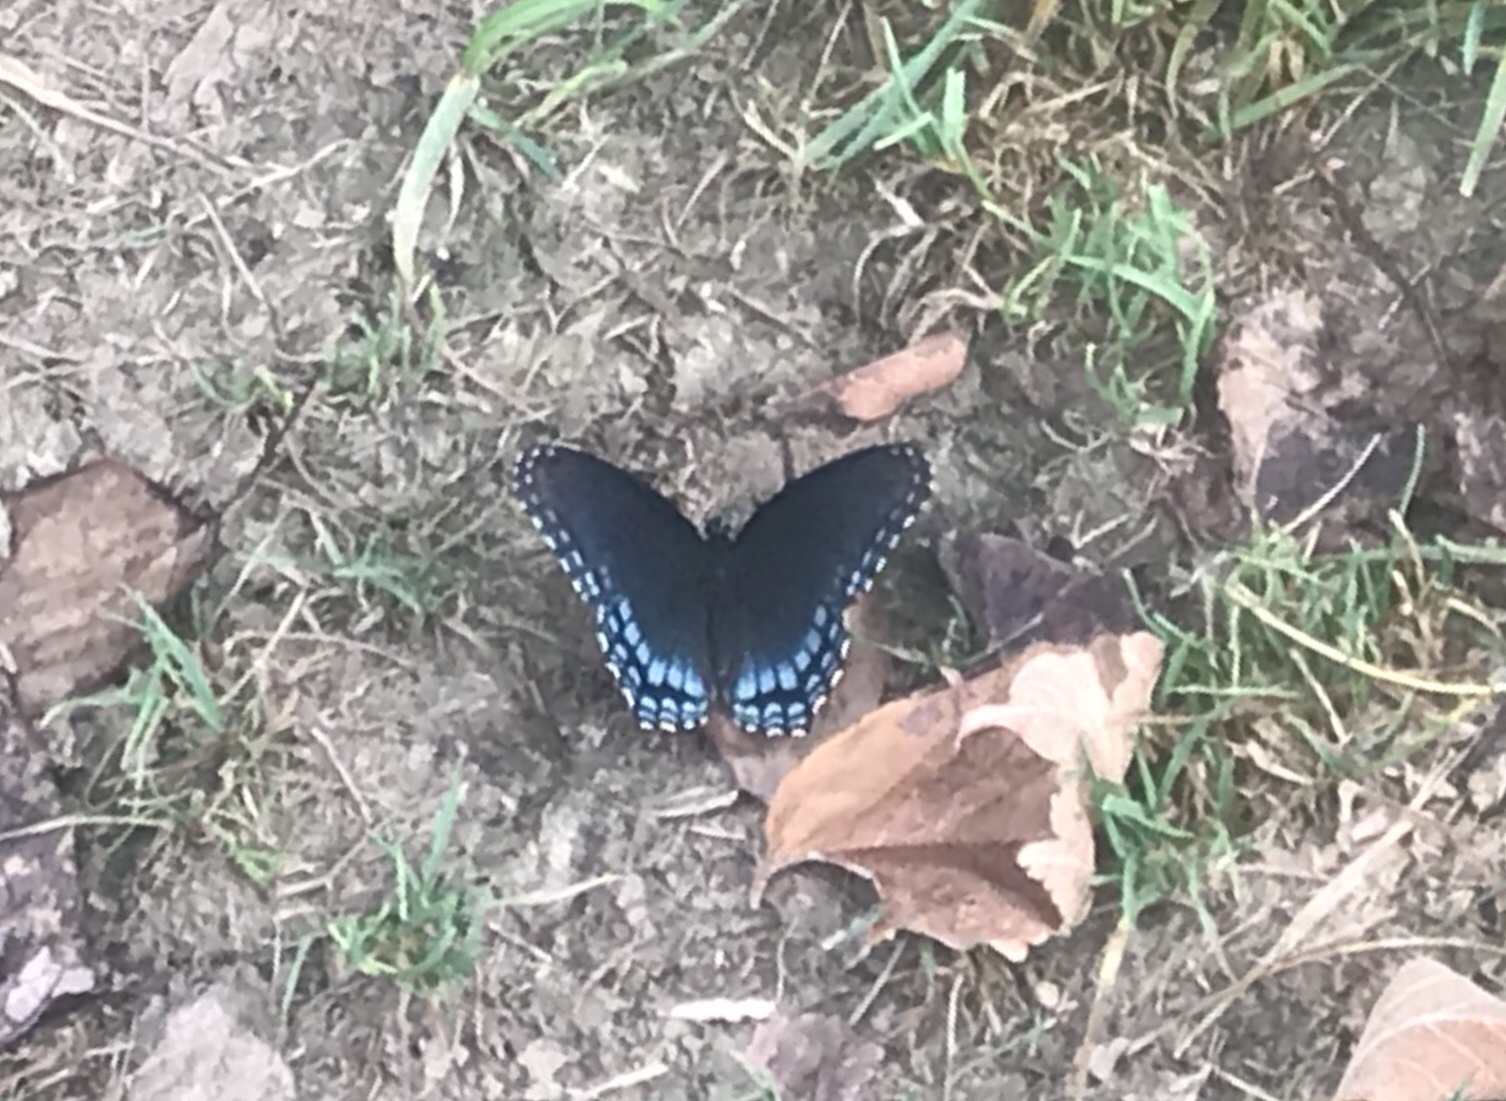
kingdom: Animalia
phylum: Arthropoda
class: Insecta
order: Lepidoptera
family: Nymphalidae
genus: Limenitis
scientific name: Limenitis arthemis
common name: Red-spotted admiral
